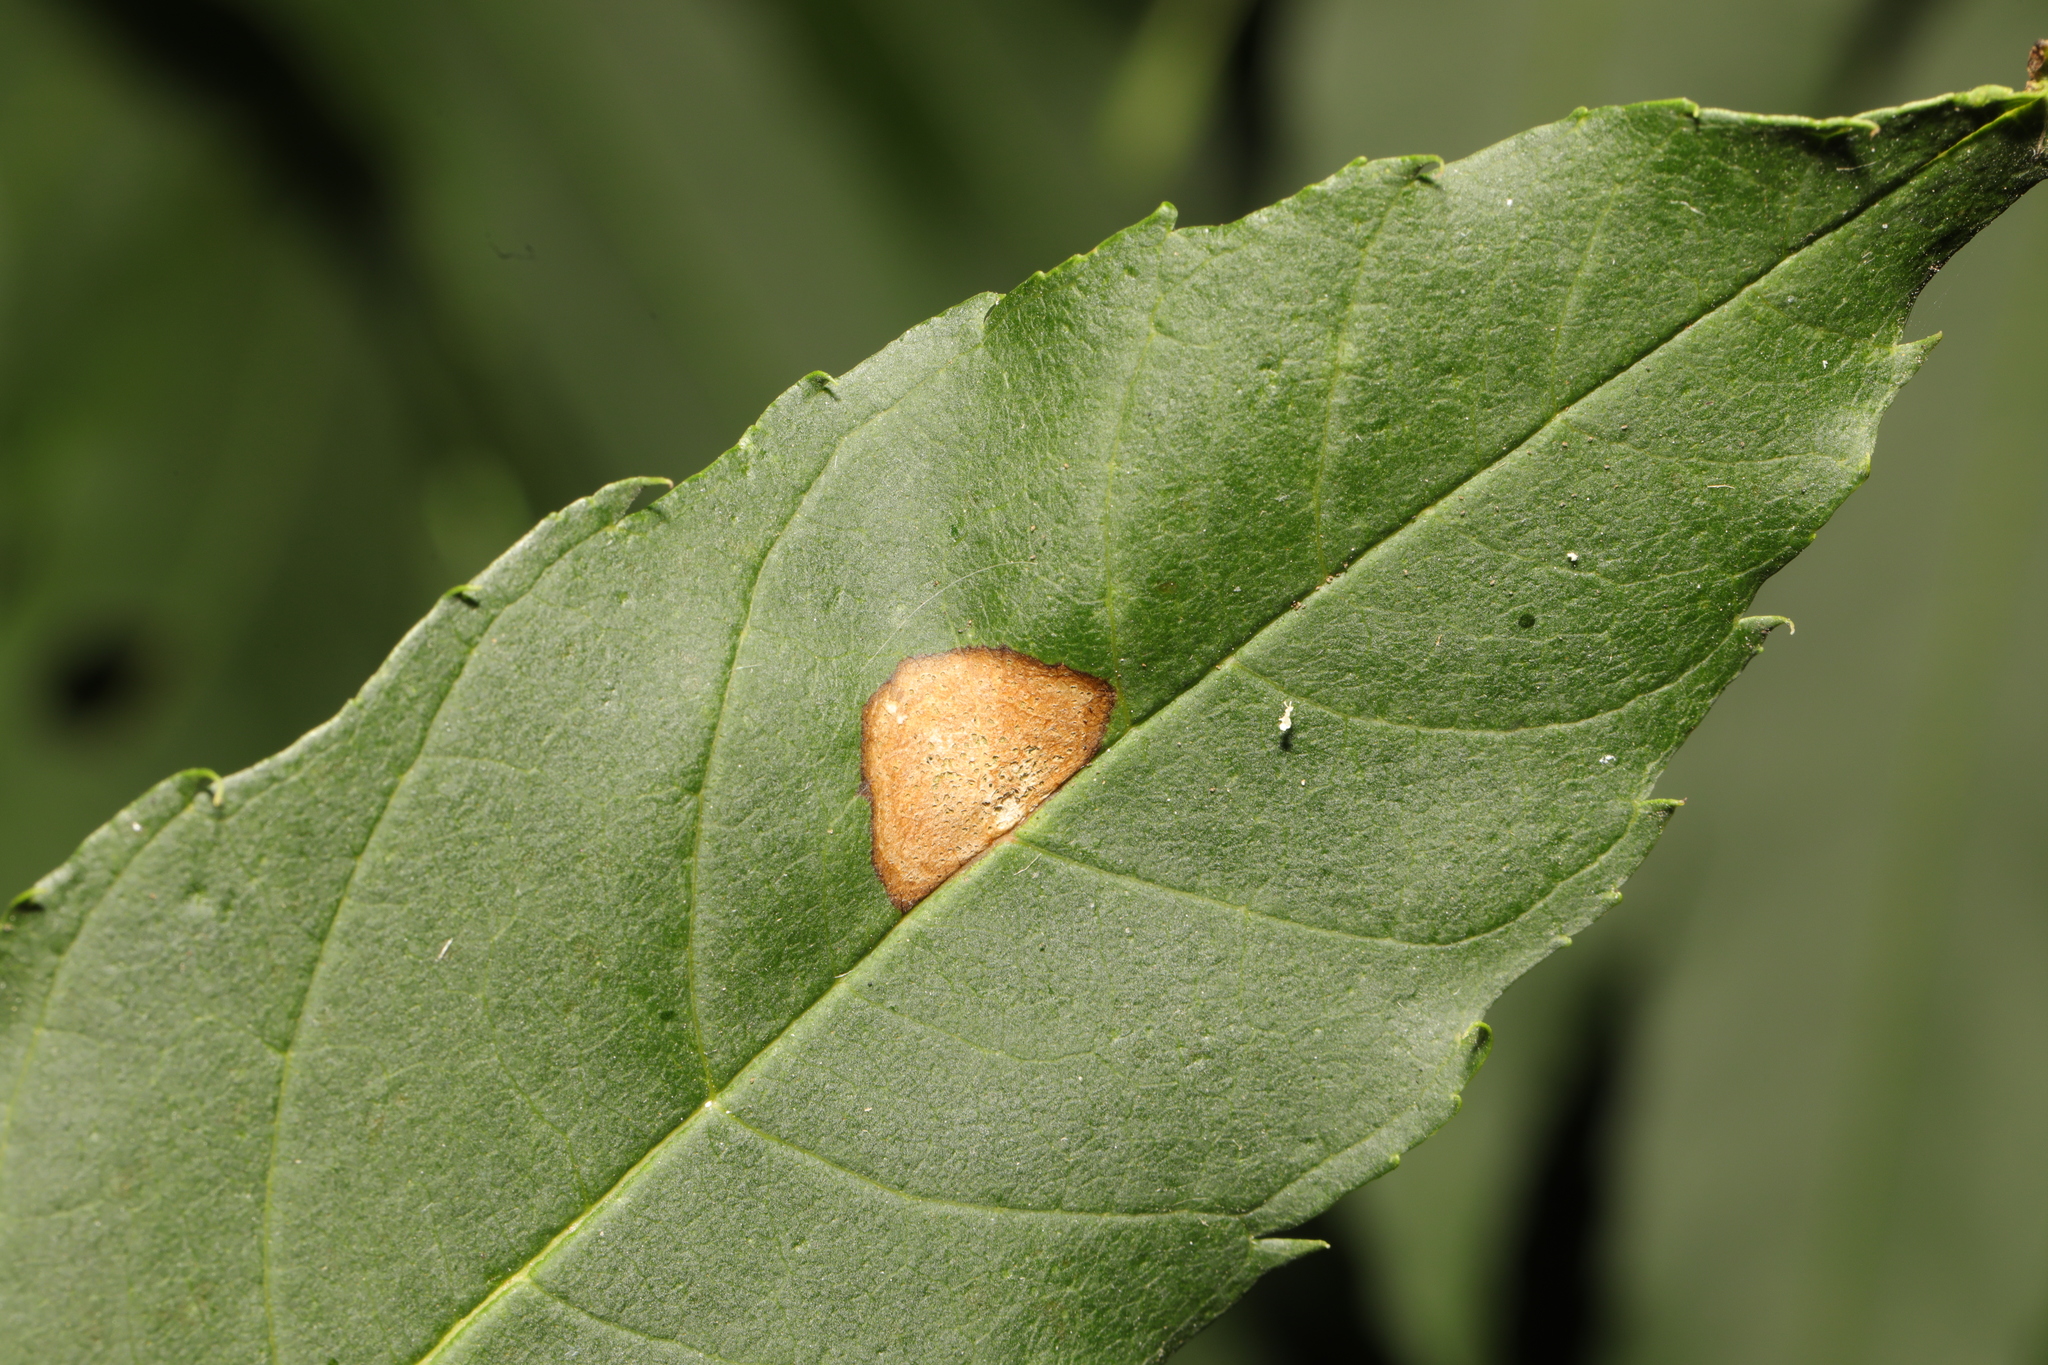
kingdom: Animalia
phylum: Arthropoda
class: Insecta
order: Diptera
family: Cecidomyiidae
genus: Dasineura
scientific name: Dasineura fraxinea
